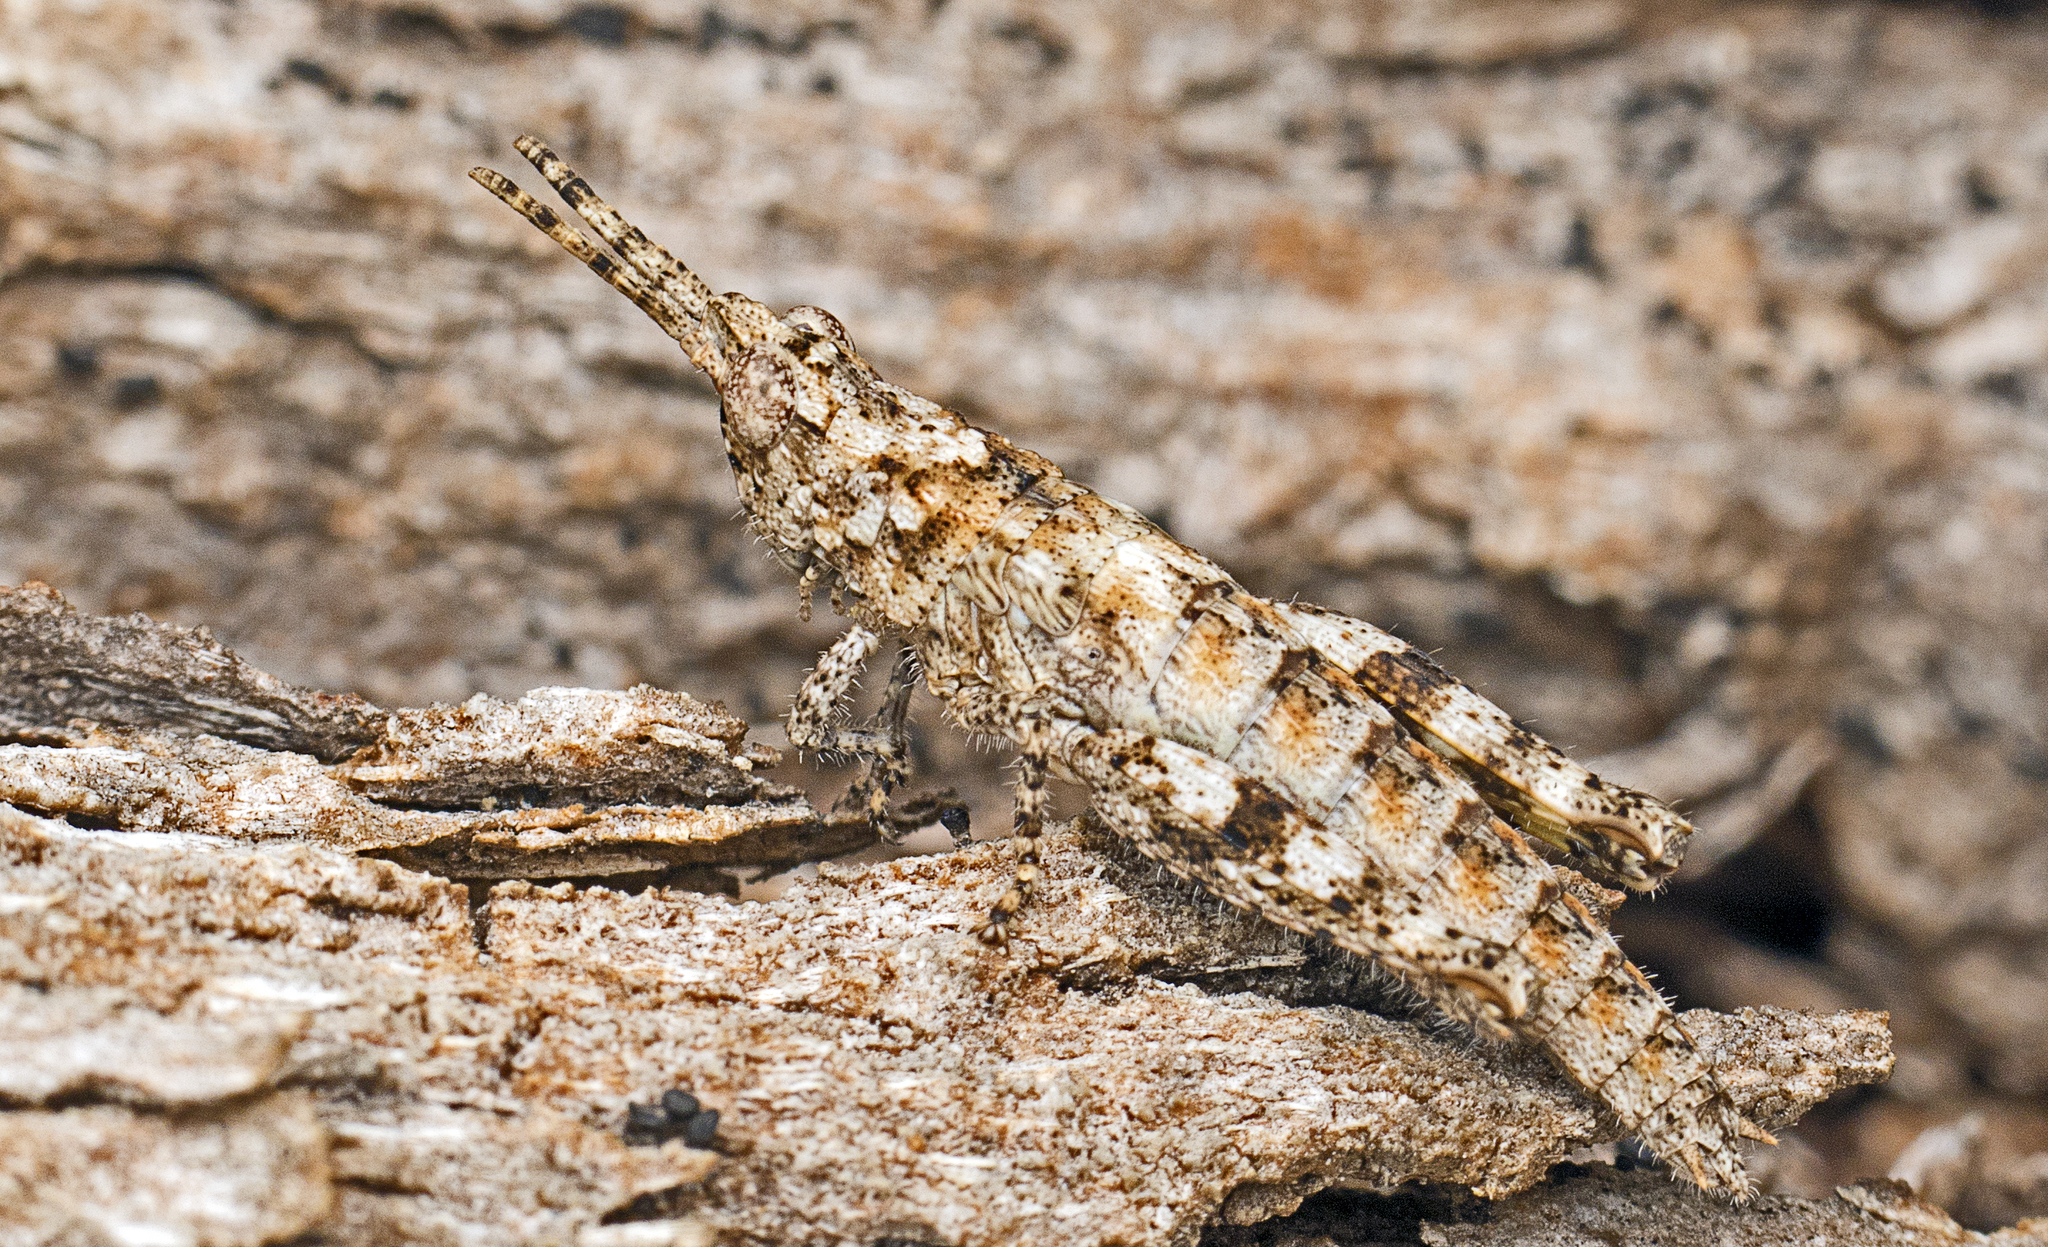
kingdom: Animalia
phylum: Arthropoda
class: Insecta
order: Orthoptera
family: Acrididae
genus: Coryphistes
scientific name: Coryphistes ruricola
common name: Bark-mimicking grasshopper
